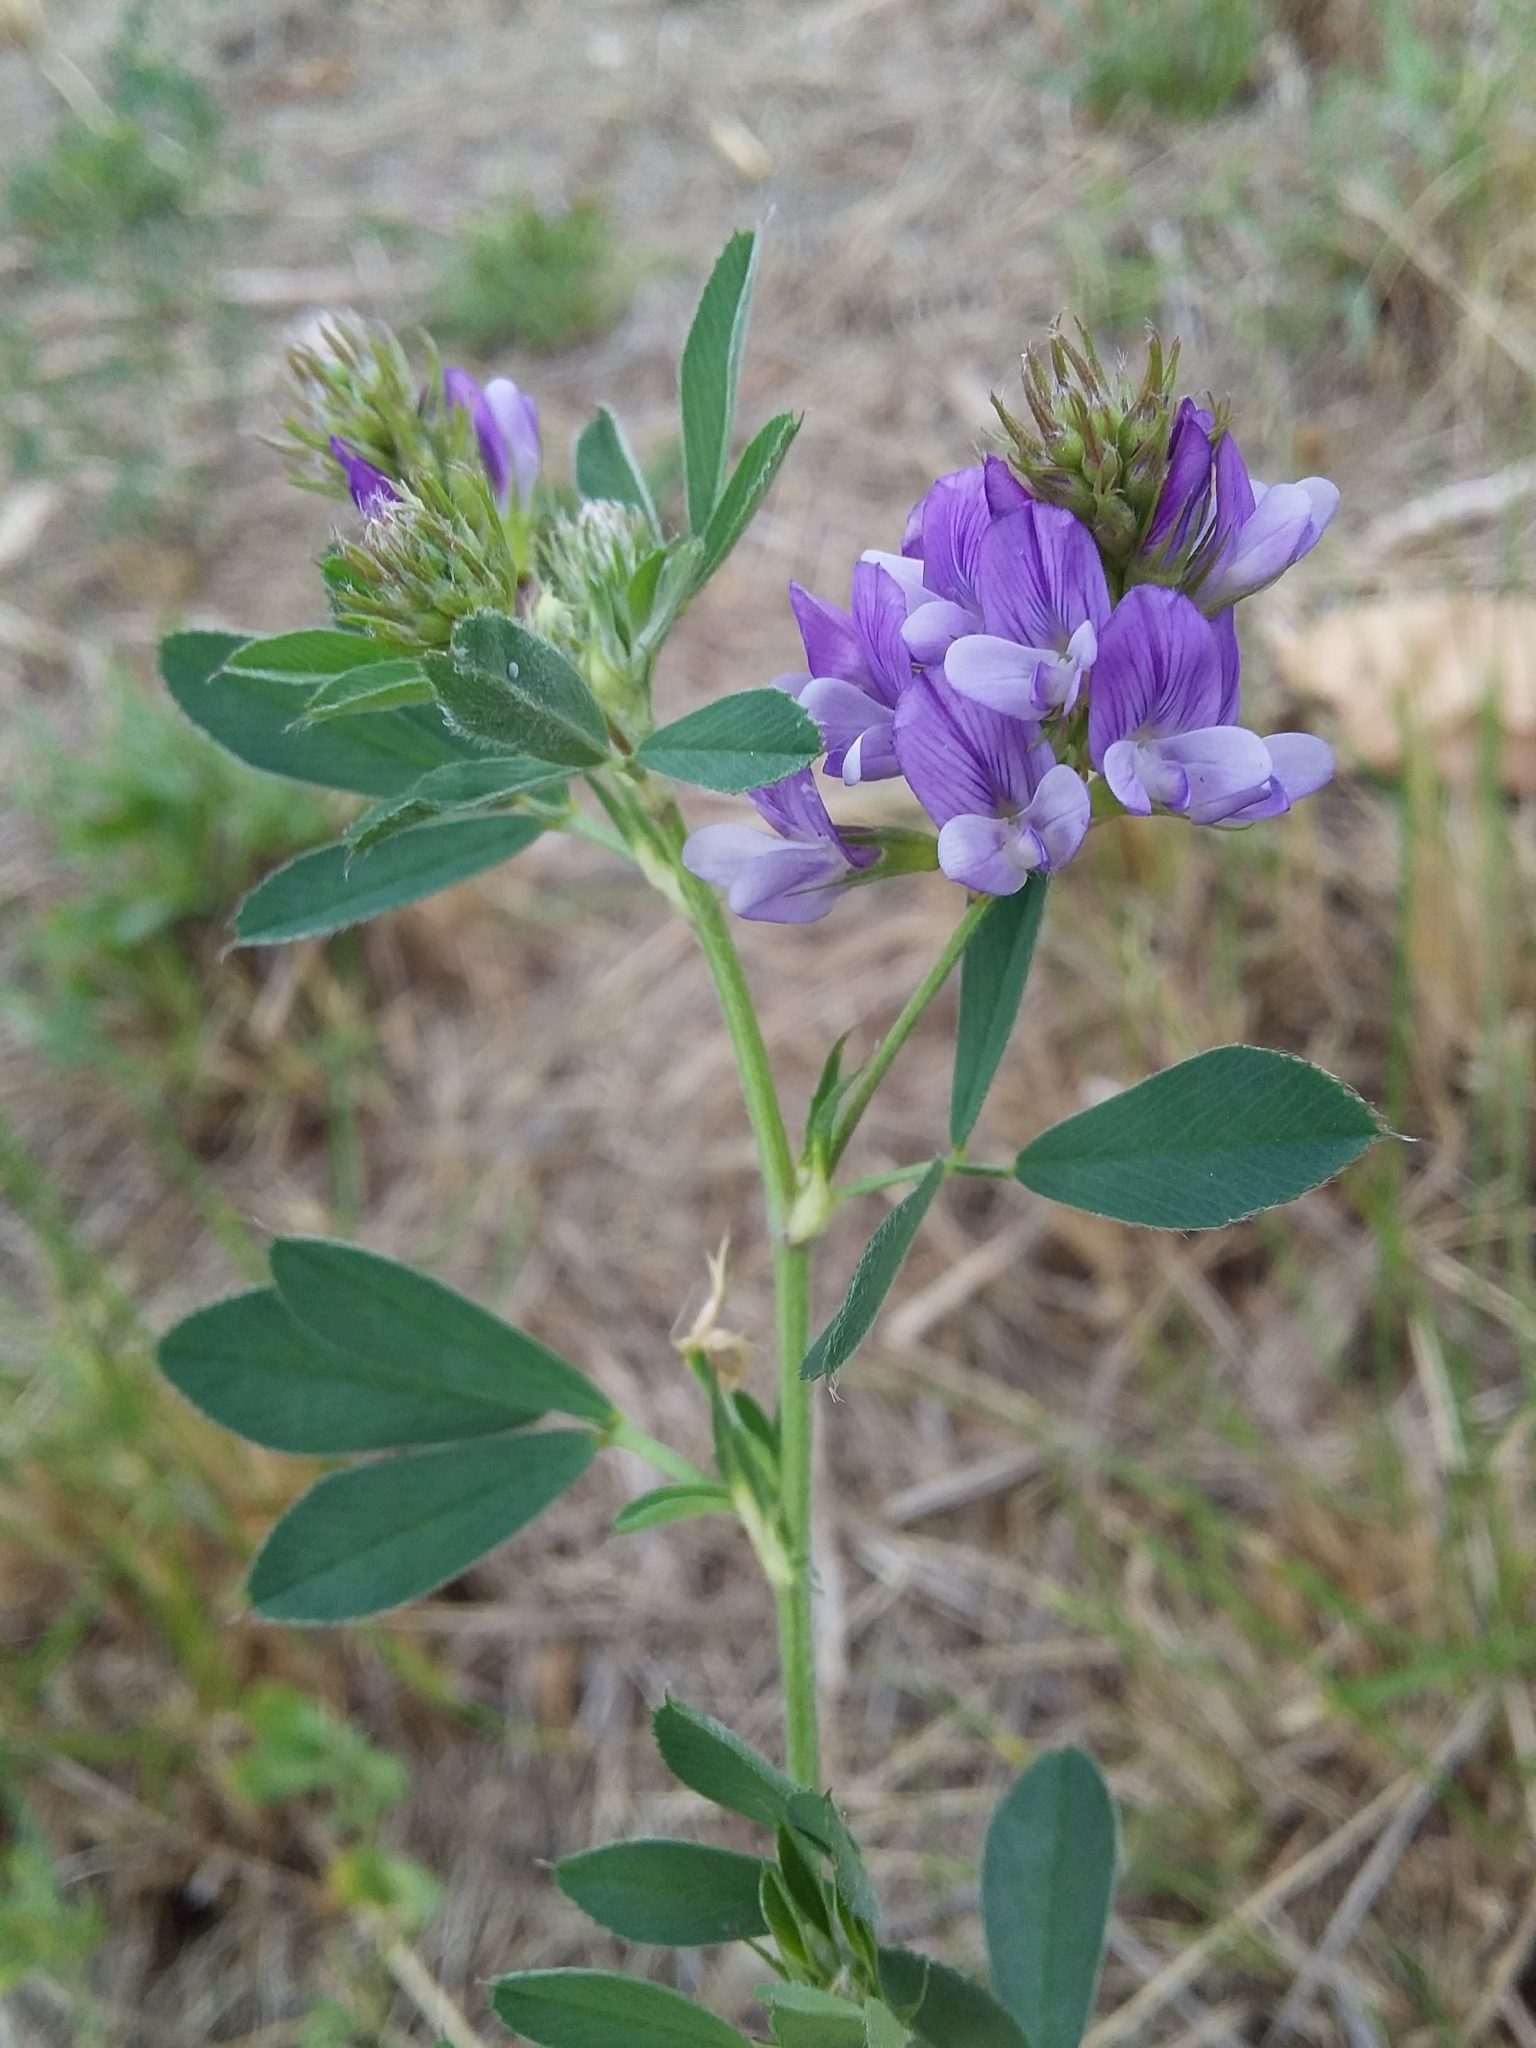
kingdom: Plantae
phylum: Tracheophyta
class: Magnoliopsida
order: Fabales
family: Fabaceae
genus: Medicago
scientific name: Medicago sativa
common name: Alfalfa
